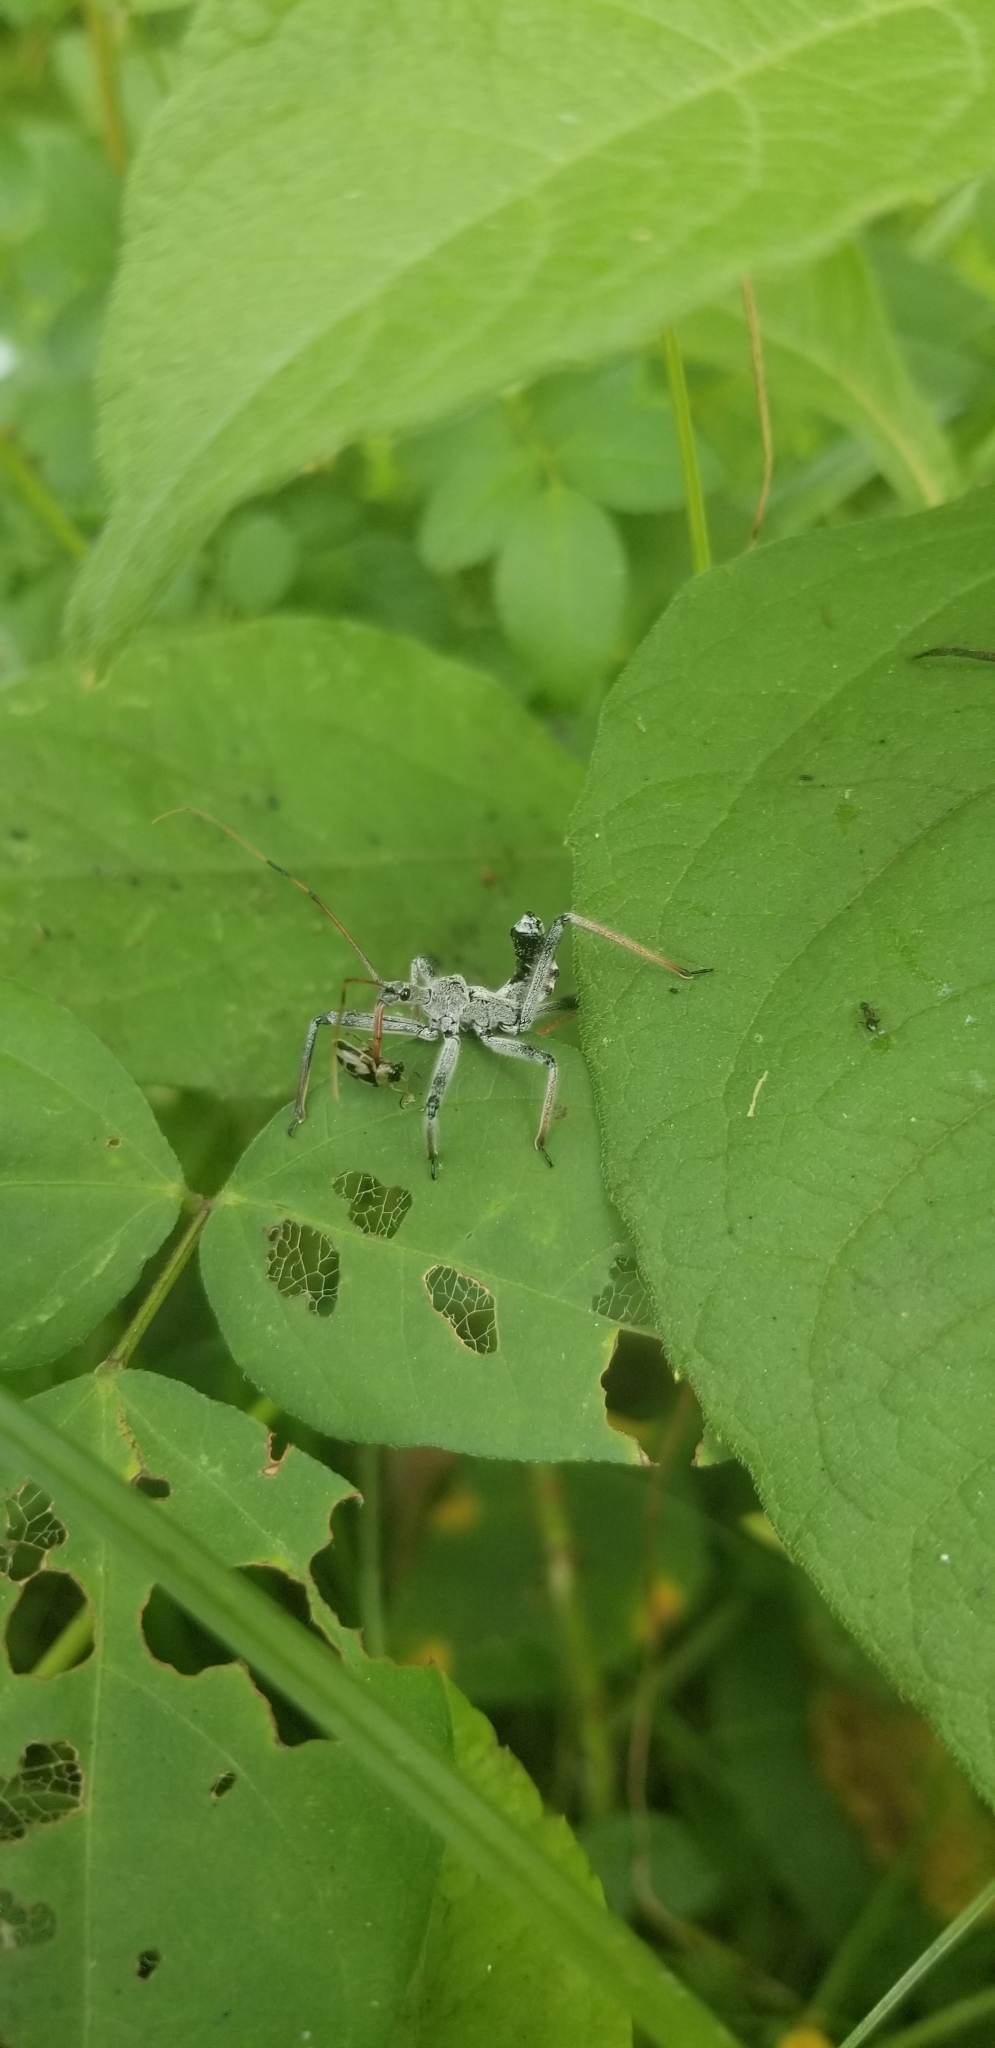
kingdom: Animalia
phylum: Arthropoda
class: Insecta
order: Hemiptera
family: Reduviidae
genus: Arilus
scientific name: Arilus cristatus
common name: North american wheel bug
